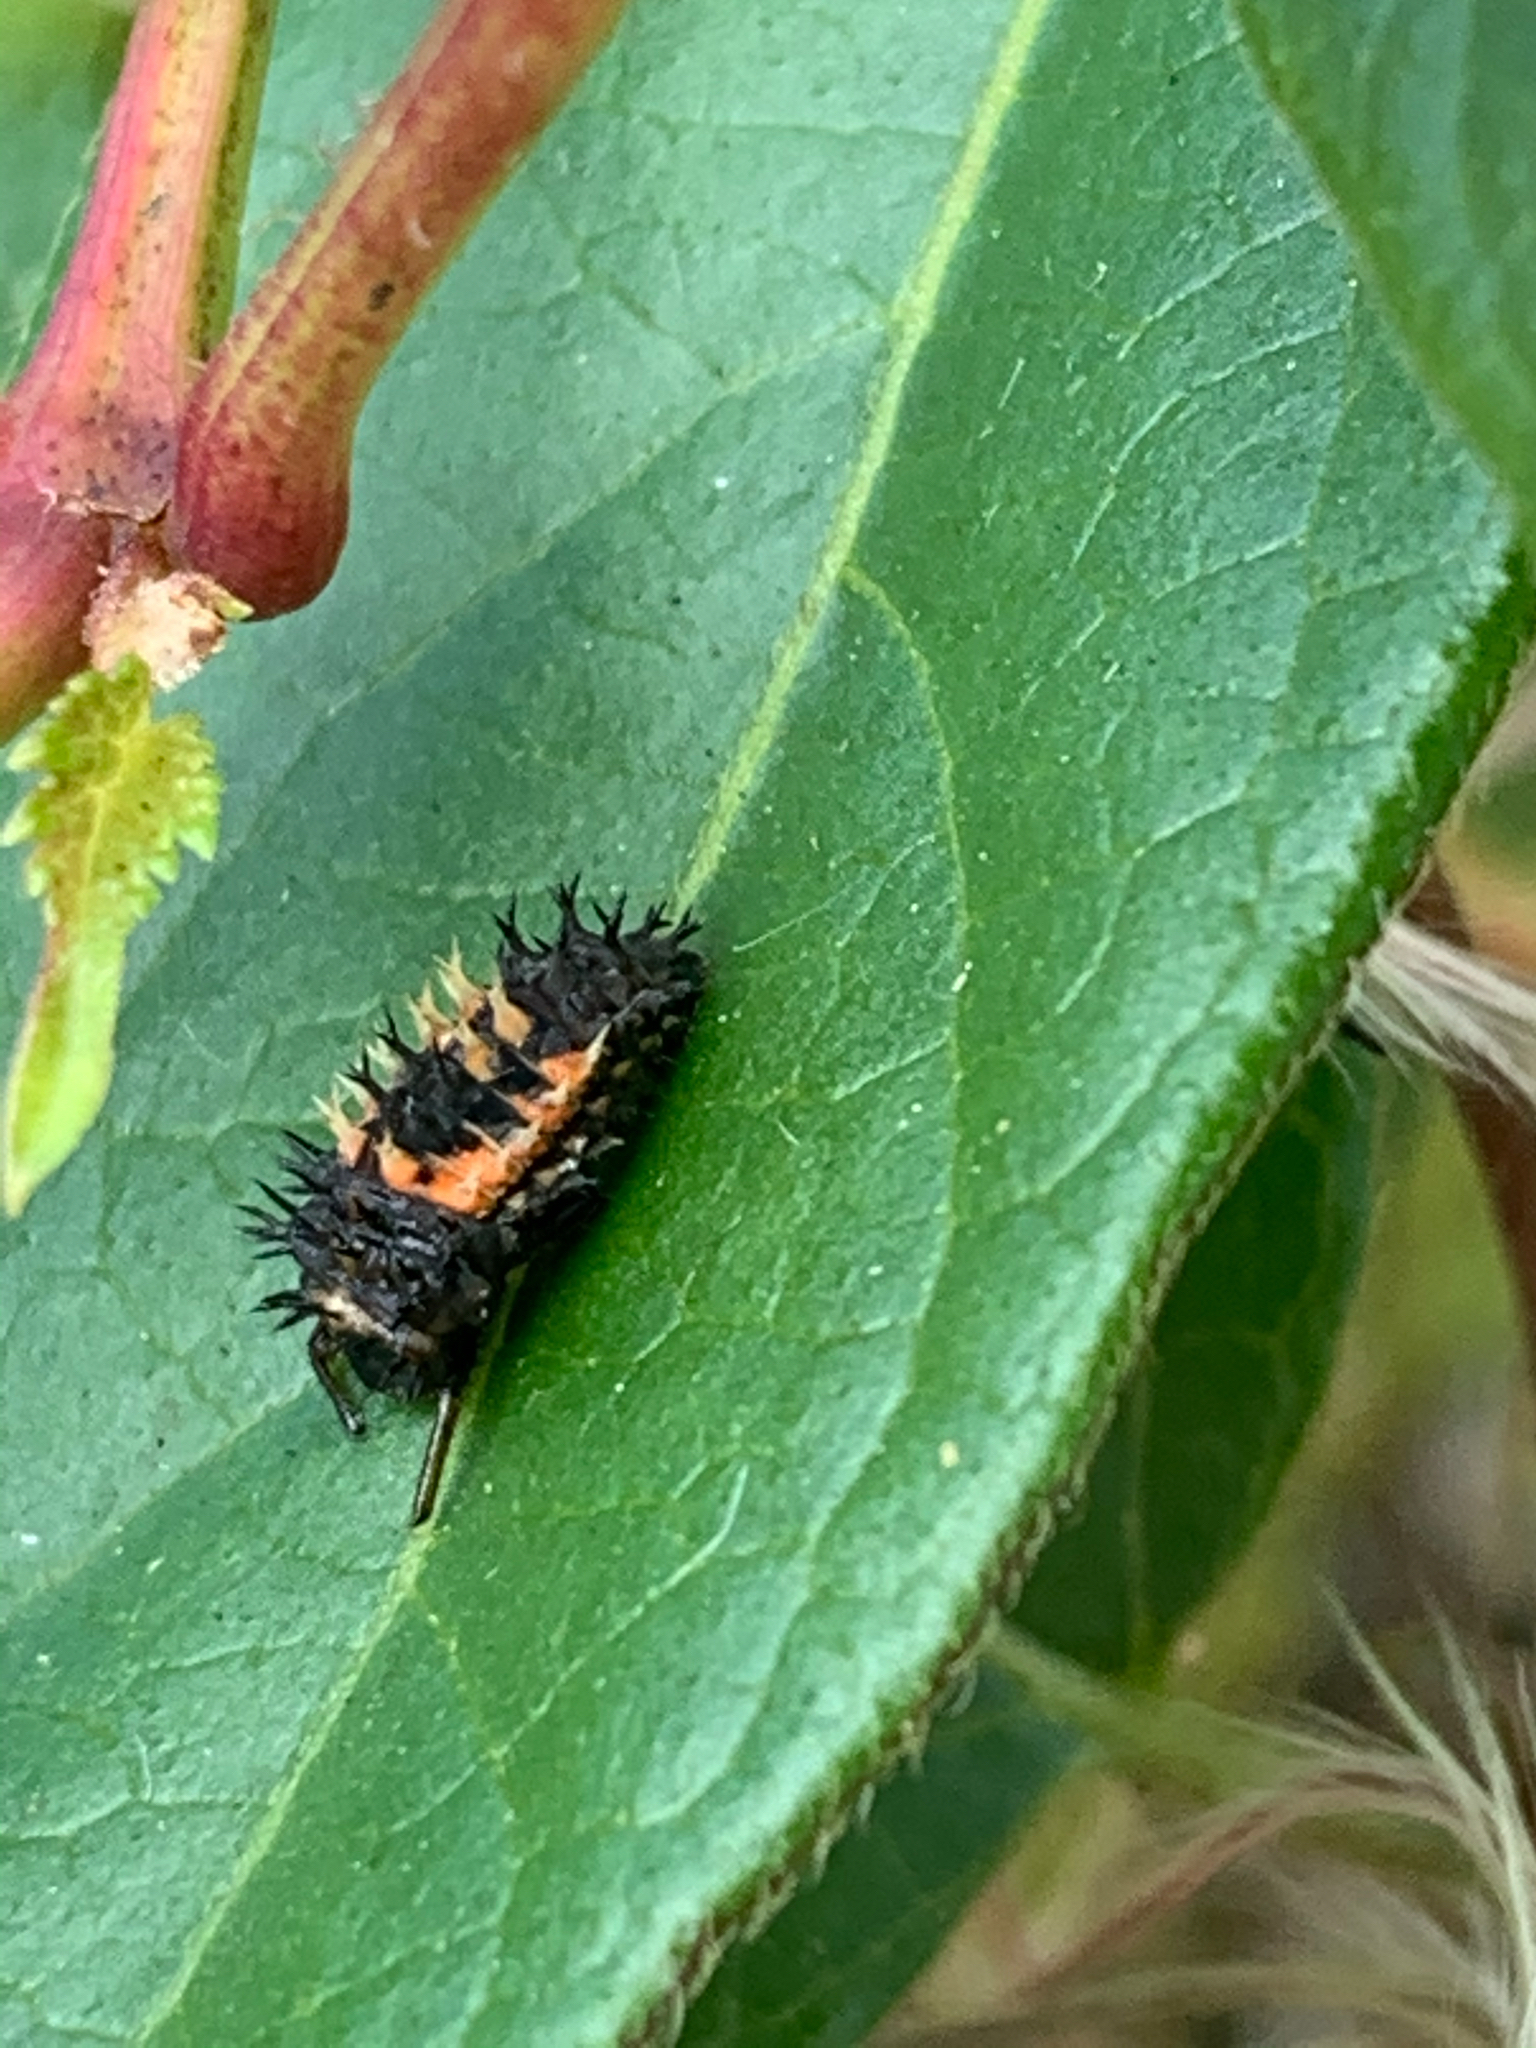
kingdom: Animalia
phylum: Arthropoda
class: Insecta
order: Coleoptera
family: Coccinellidae
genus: Harmonia
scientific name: Harmonia axyridis
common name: Harlequin ladybird
